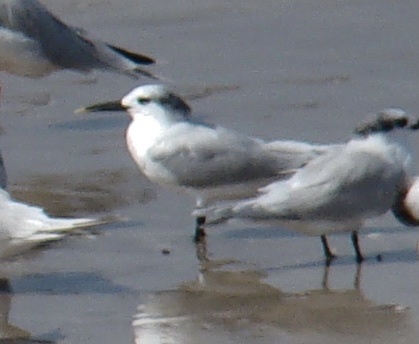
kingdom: Animalia
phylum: Chordata
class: Aves
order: Charadriiformes
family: Laridae
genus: Thalasseus
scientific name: Thalasseus sandvicensis
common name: Sandwich tern
